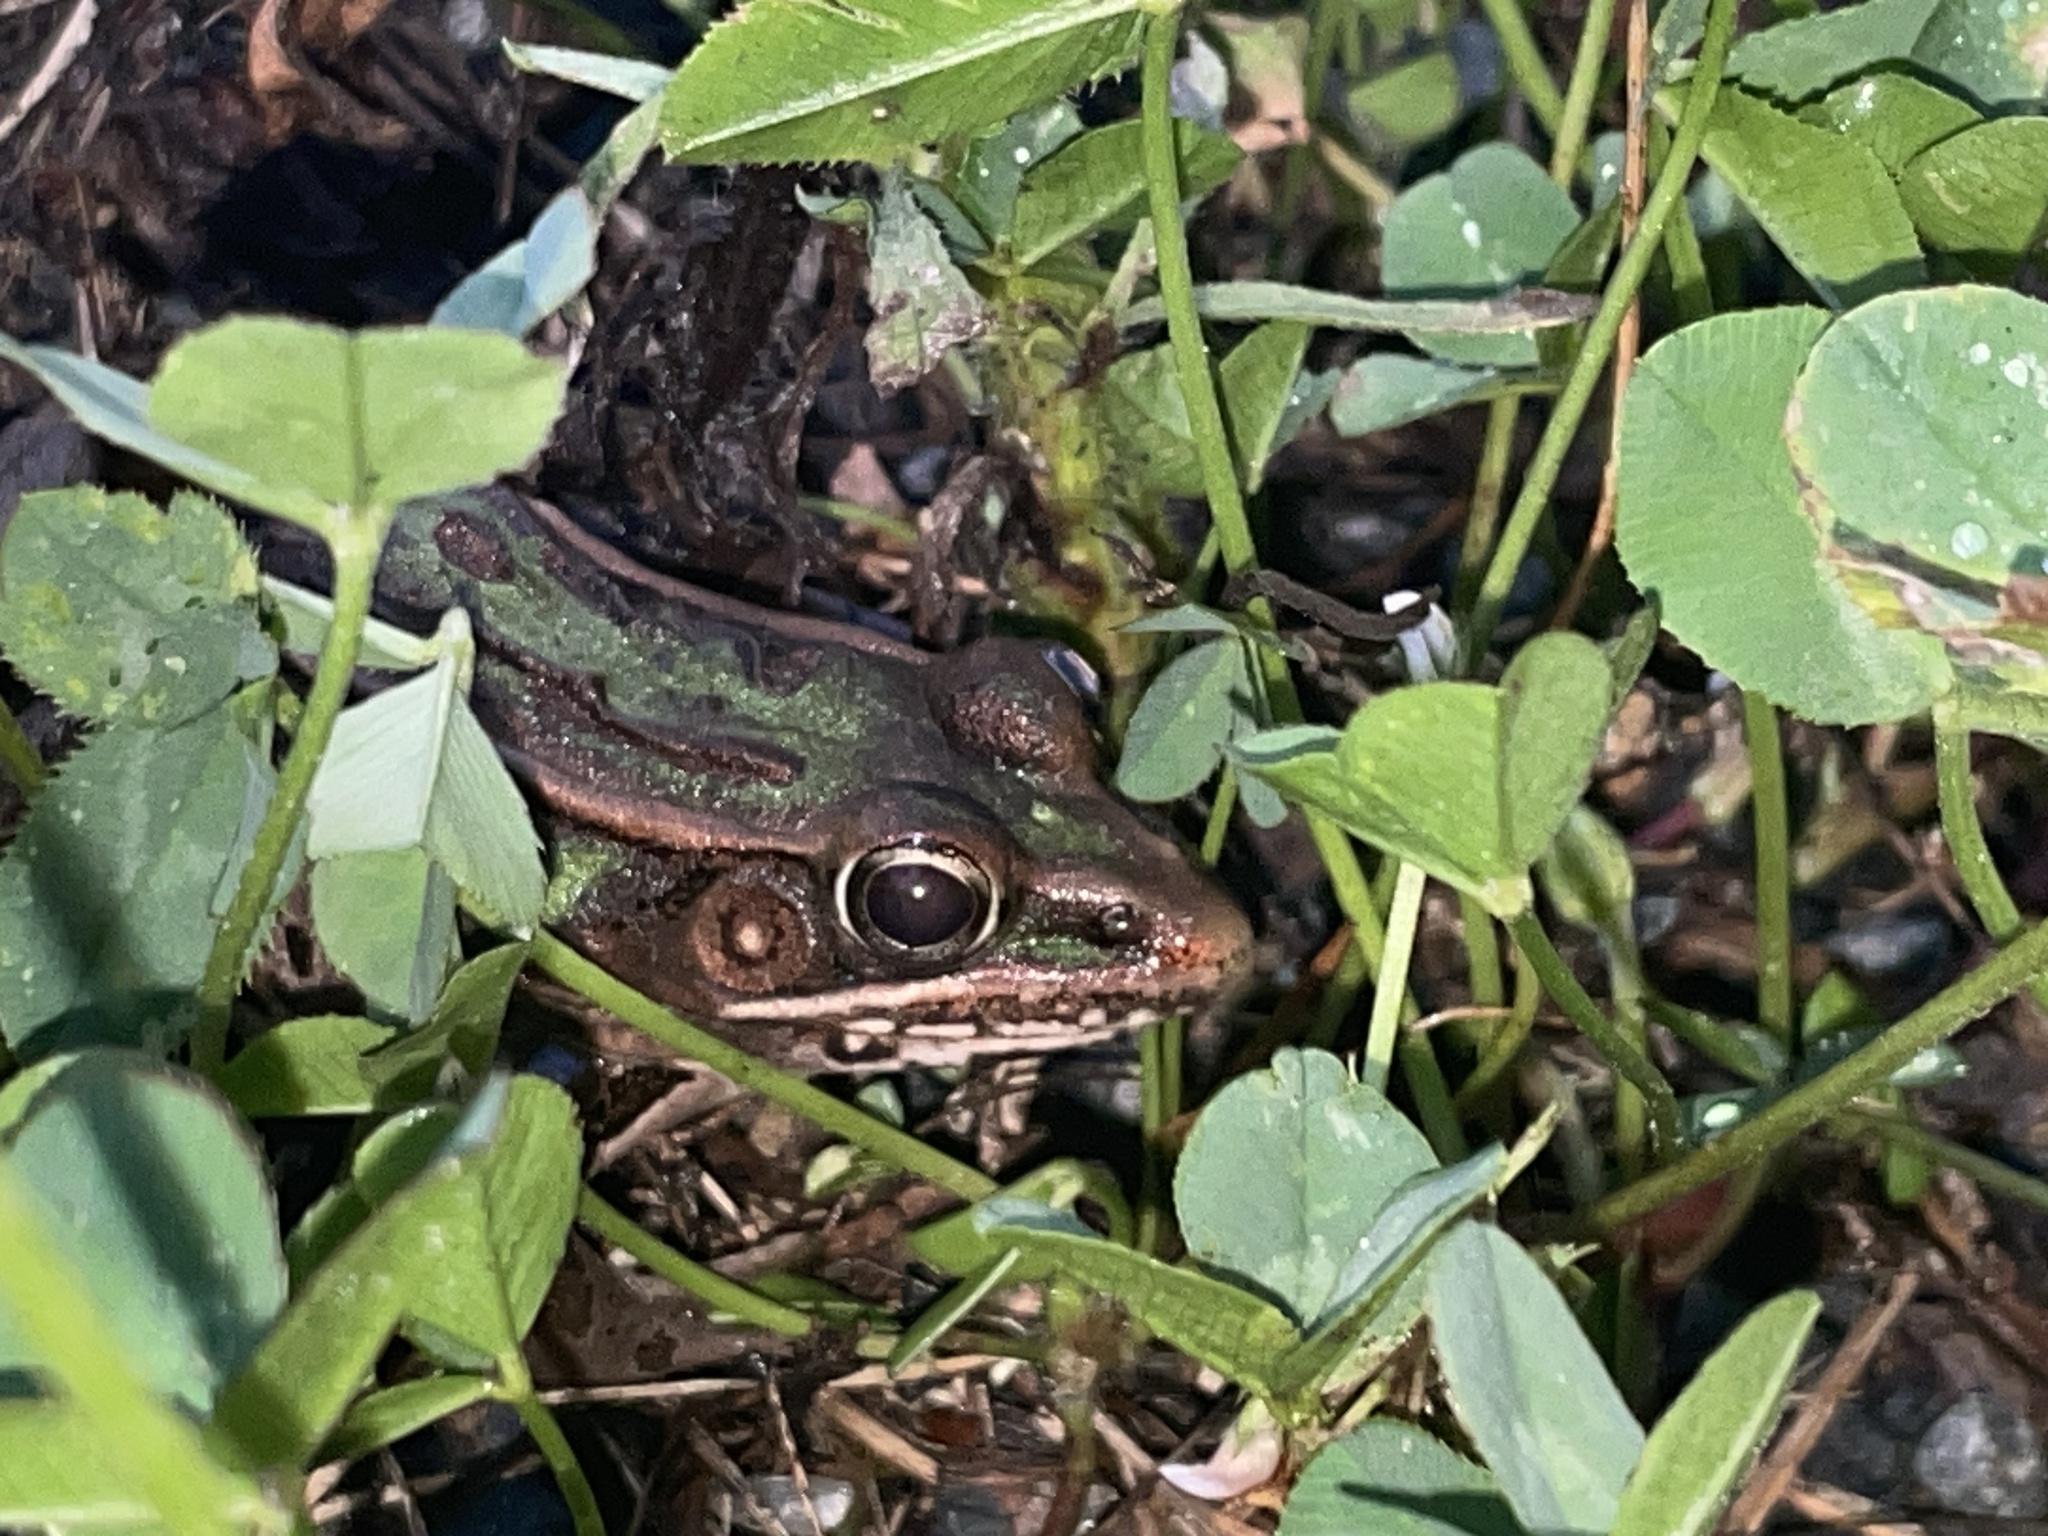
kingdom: Animalia
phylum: Chordata
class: Amphibia
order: Anura
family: Ranidae
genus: Lithobates
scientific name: Lithobates sphenocephalus
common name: Southern leopard frog
